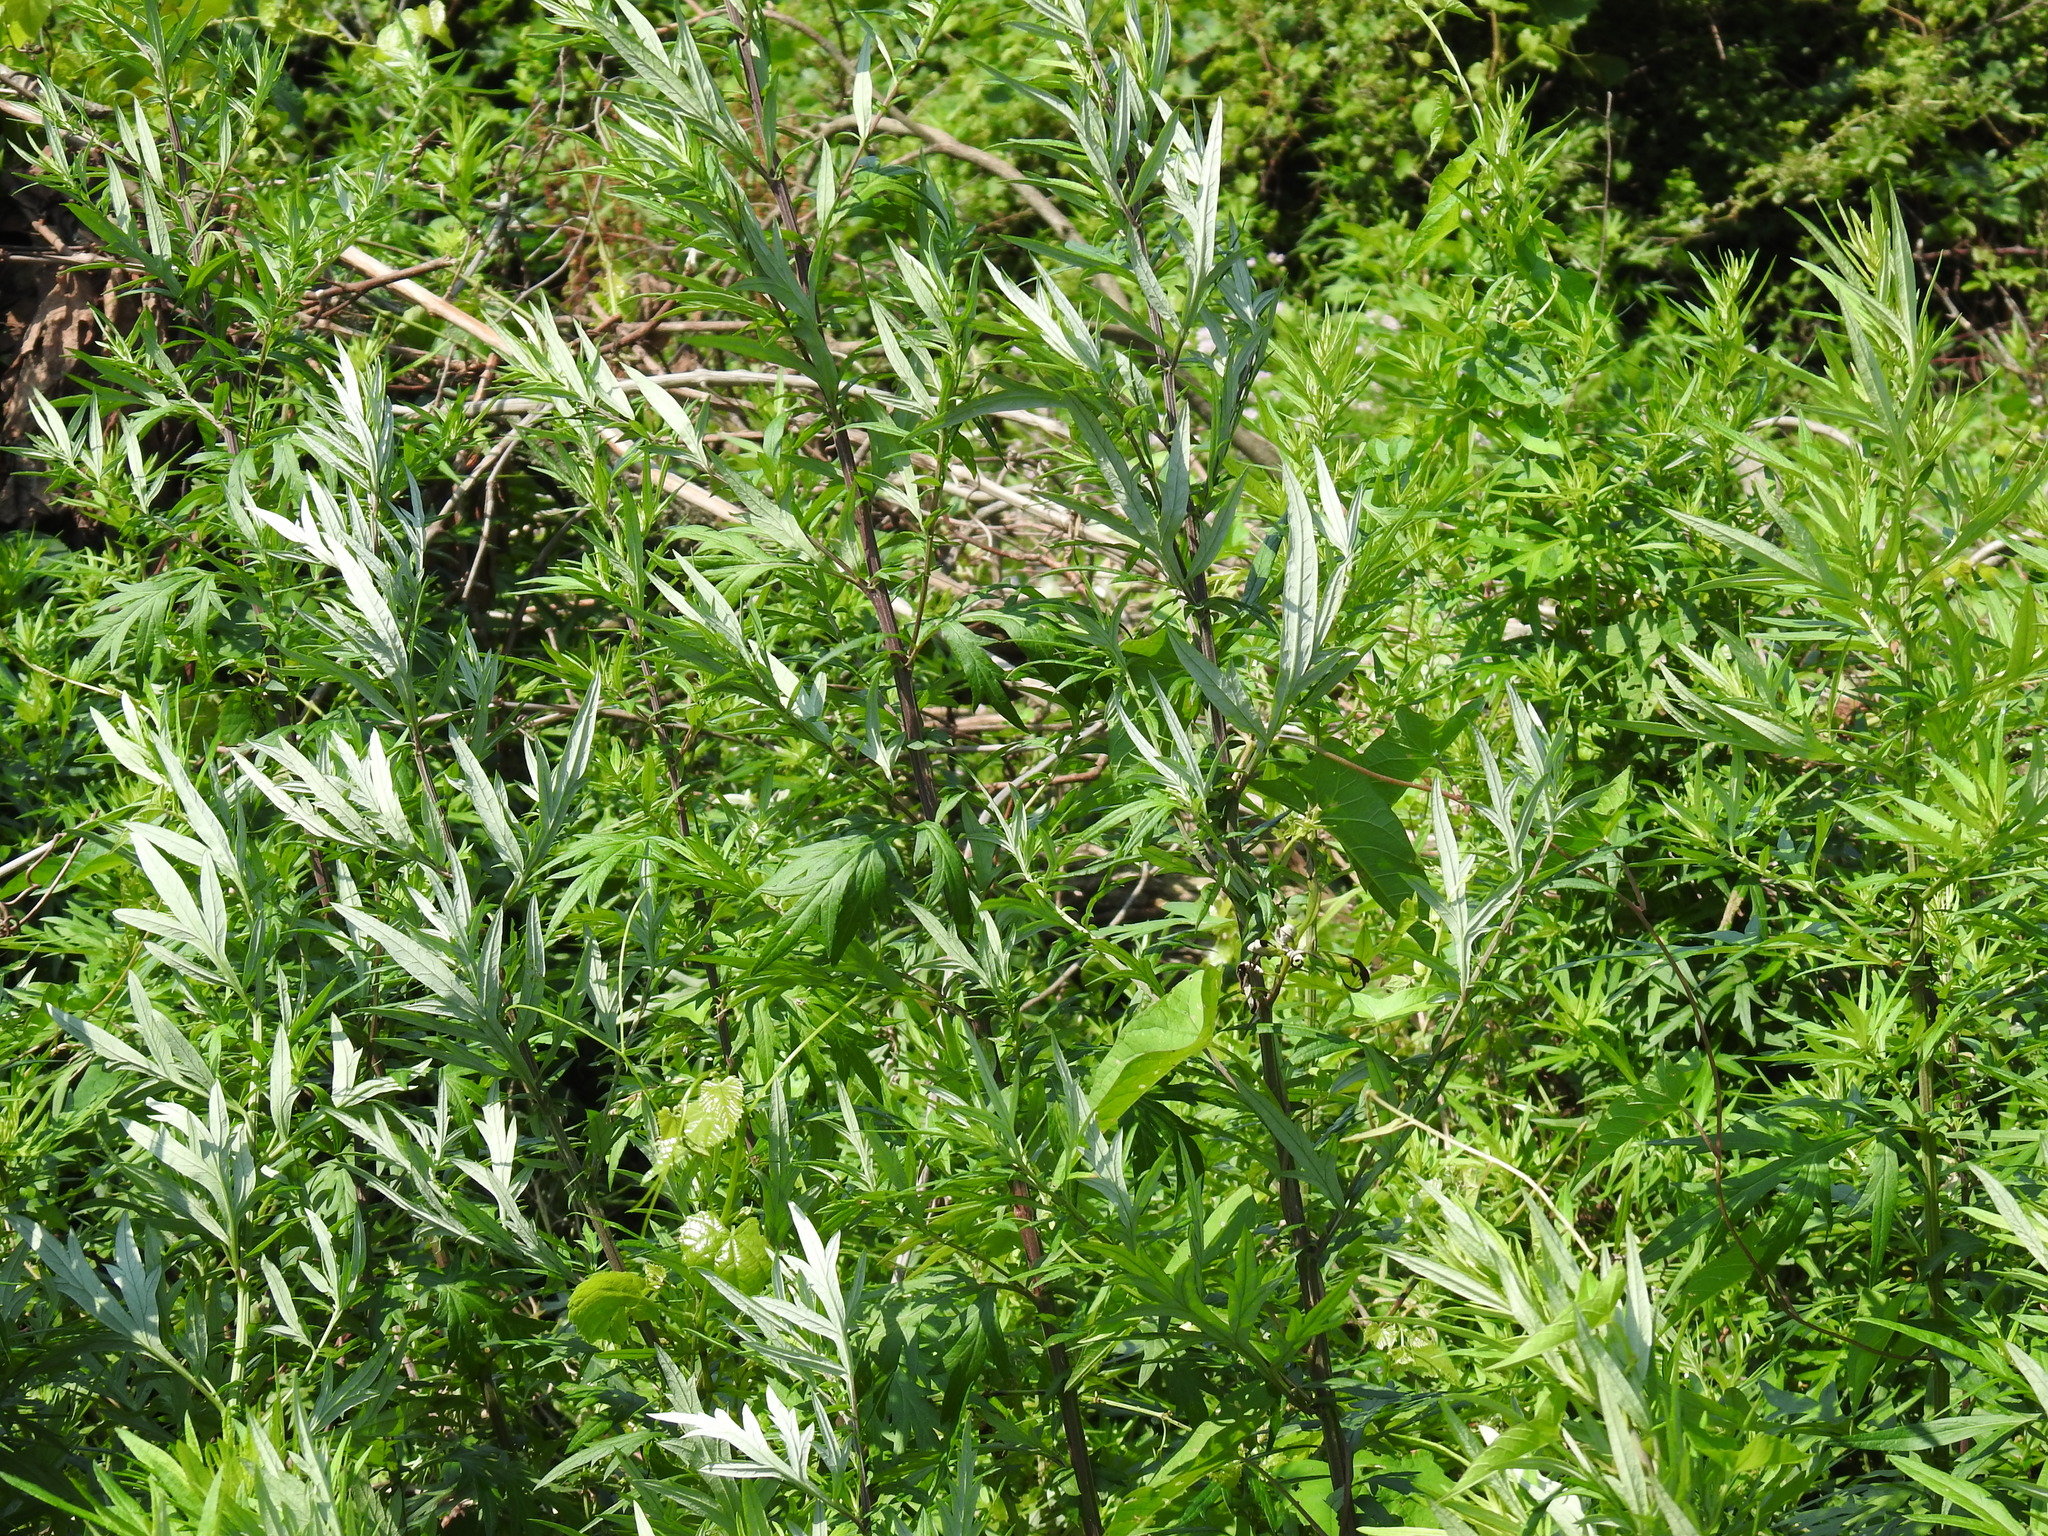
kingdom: Plantae
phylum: Tracheophyta
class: Magnoliopsida
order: Asterales
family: Asteraceae
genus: Artemisia
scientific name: Artemisia vulgaris
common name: Mugwort
